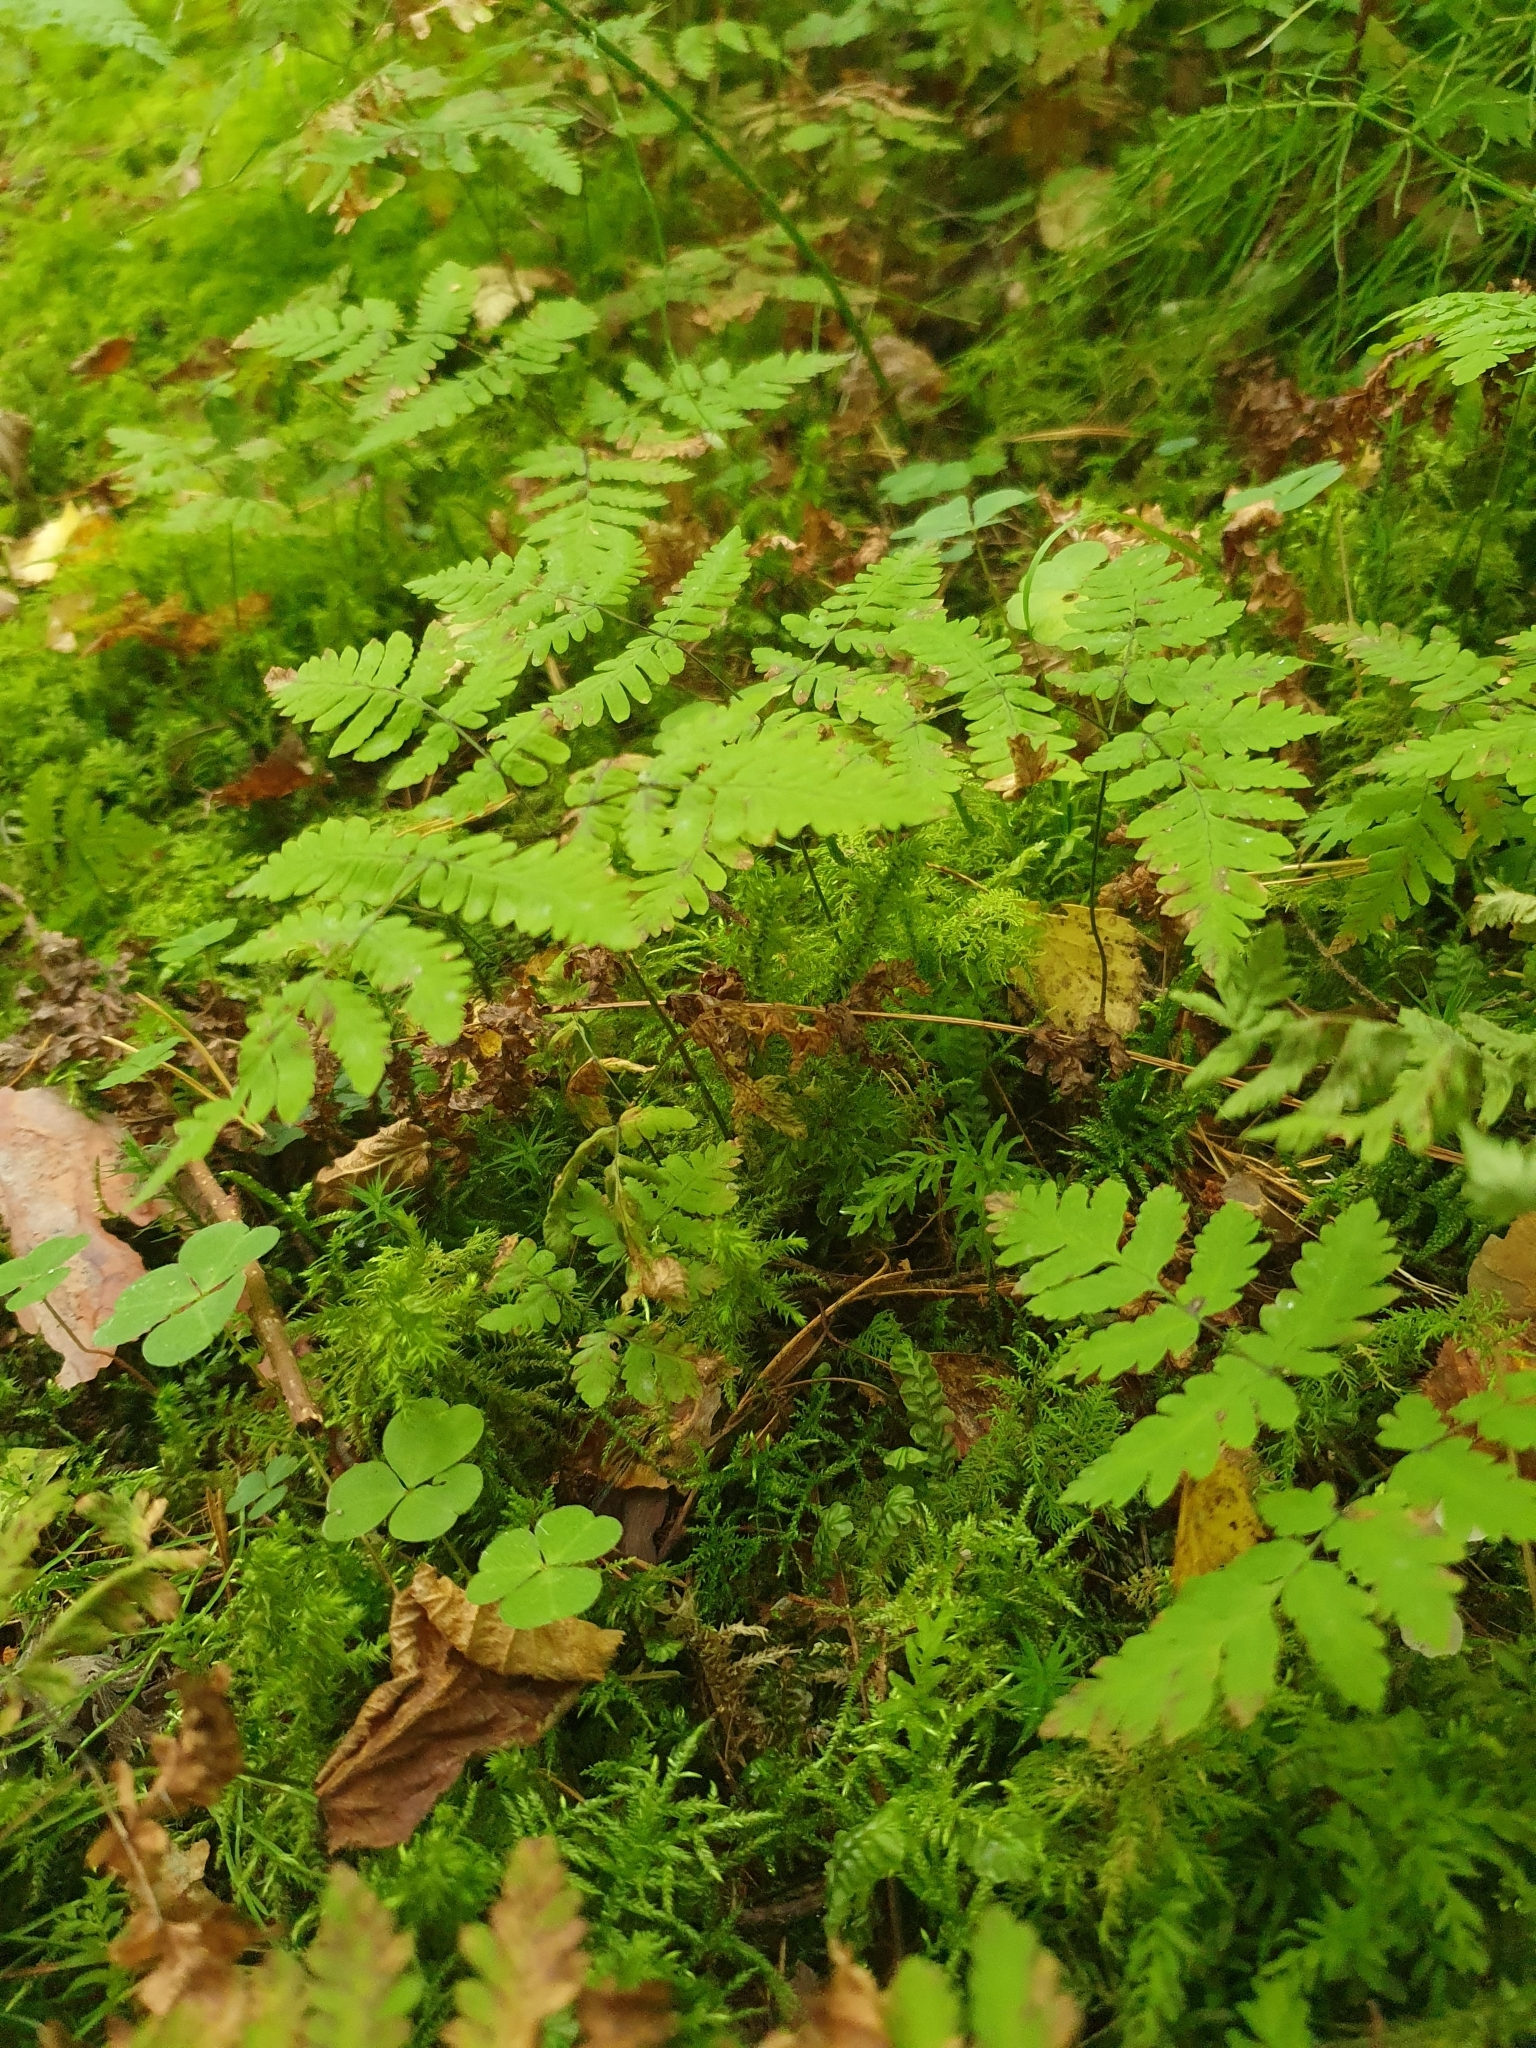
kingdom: Plantae
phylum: Tracheophyta
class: Polypodiopsida
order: Polypodiales
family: Cystopteridaceae
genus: Gymnocarpium
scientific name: Gymnocarpium dryopteris
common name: Oak fern
